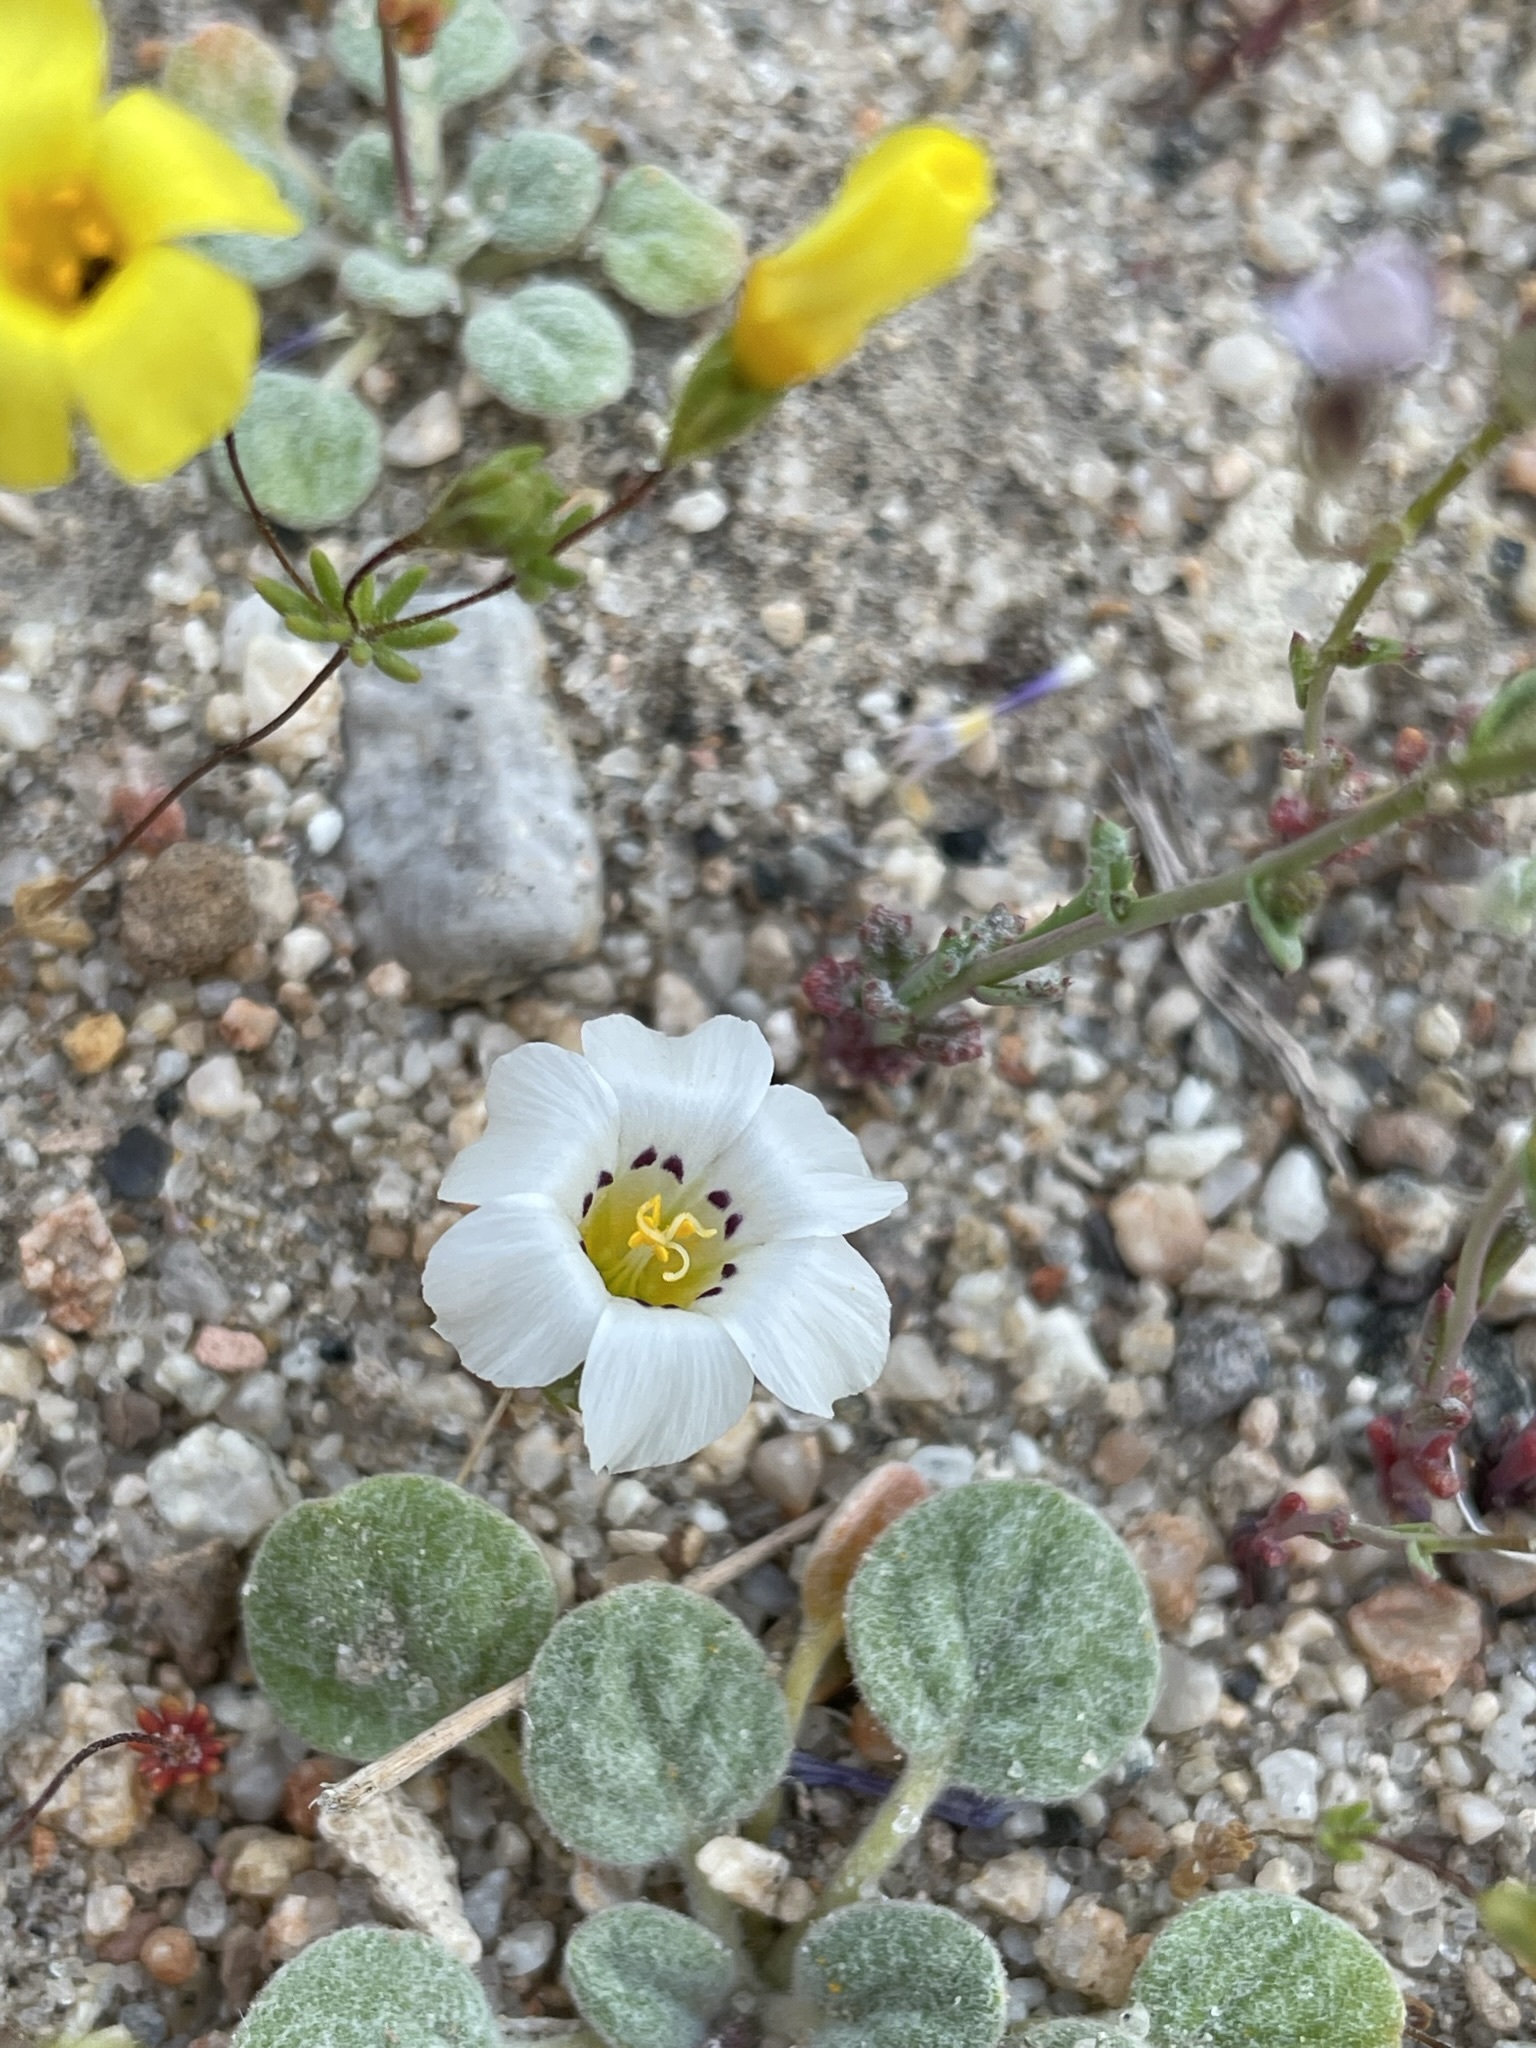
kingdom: Plantae
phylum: Tracheophyta
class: Magnoliopsida
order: Ericales
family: Polemoniaceae
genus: Linanthus
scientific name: Linanthus parryae
